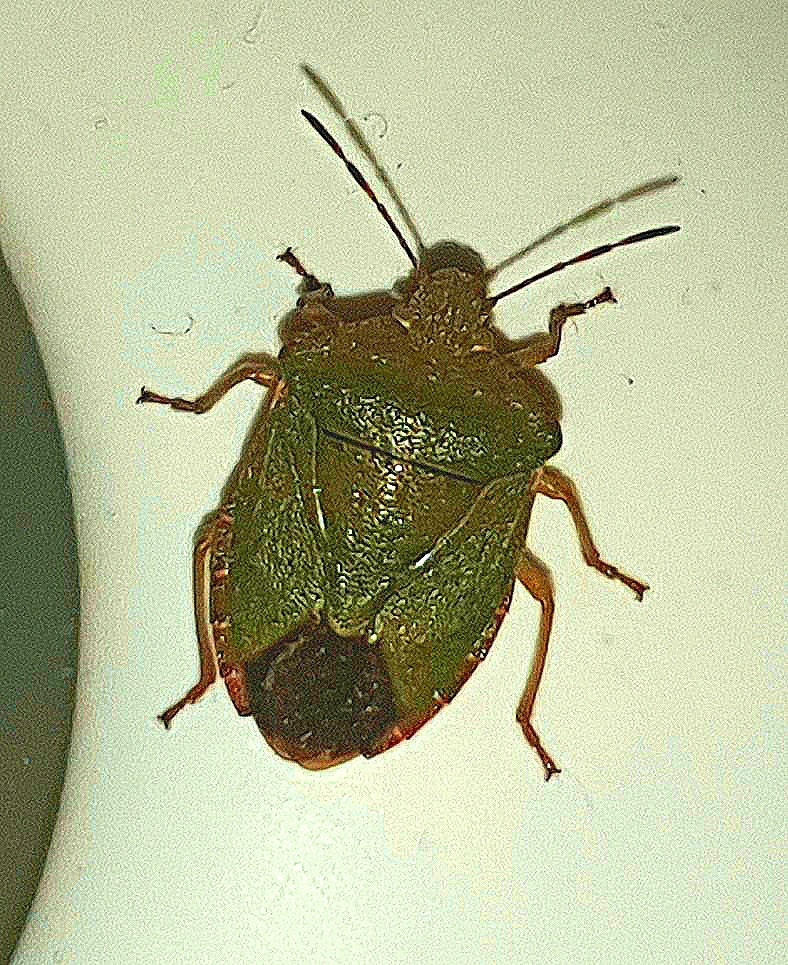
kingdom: Animalia
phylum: Arthropoda
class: Insecta
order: Hemiptera
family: Pentatomidae
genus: Palomena
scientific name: Palomena prasina
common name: Green shieldbug
